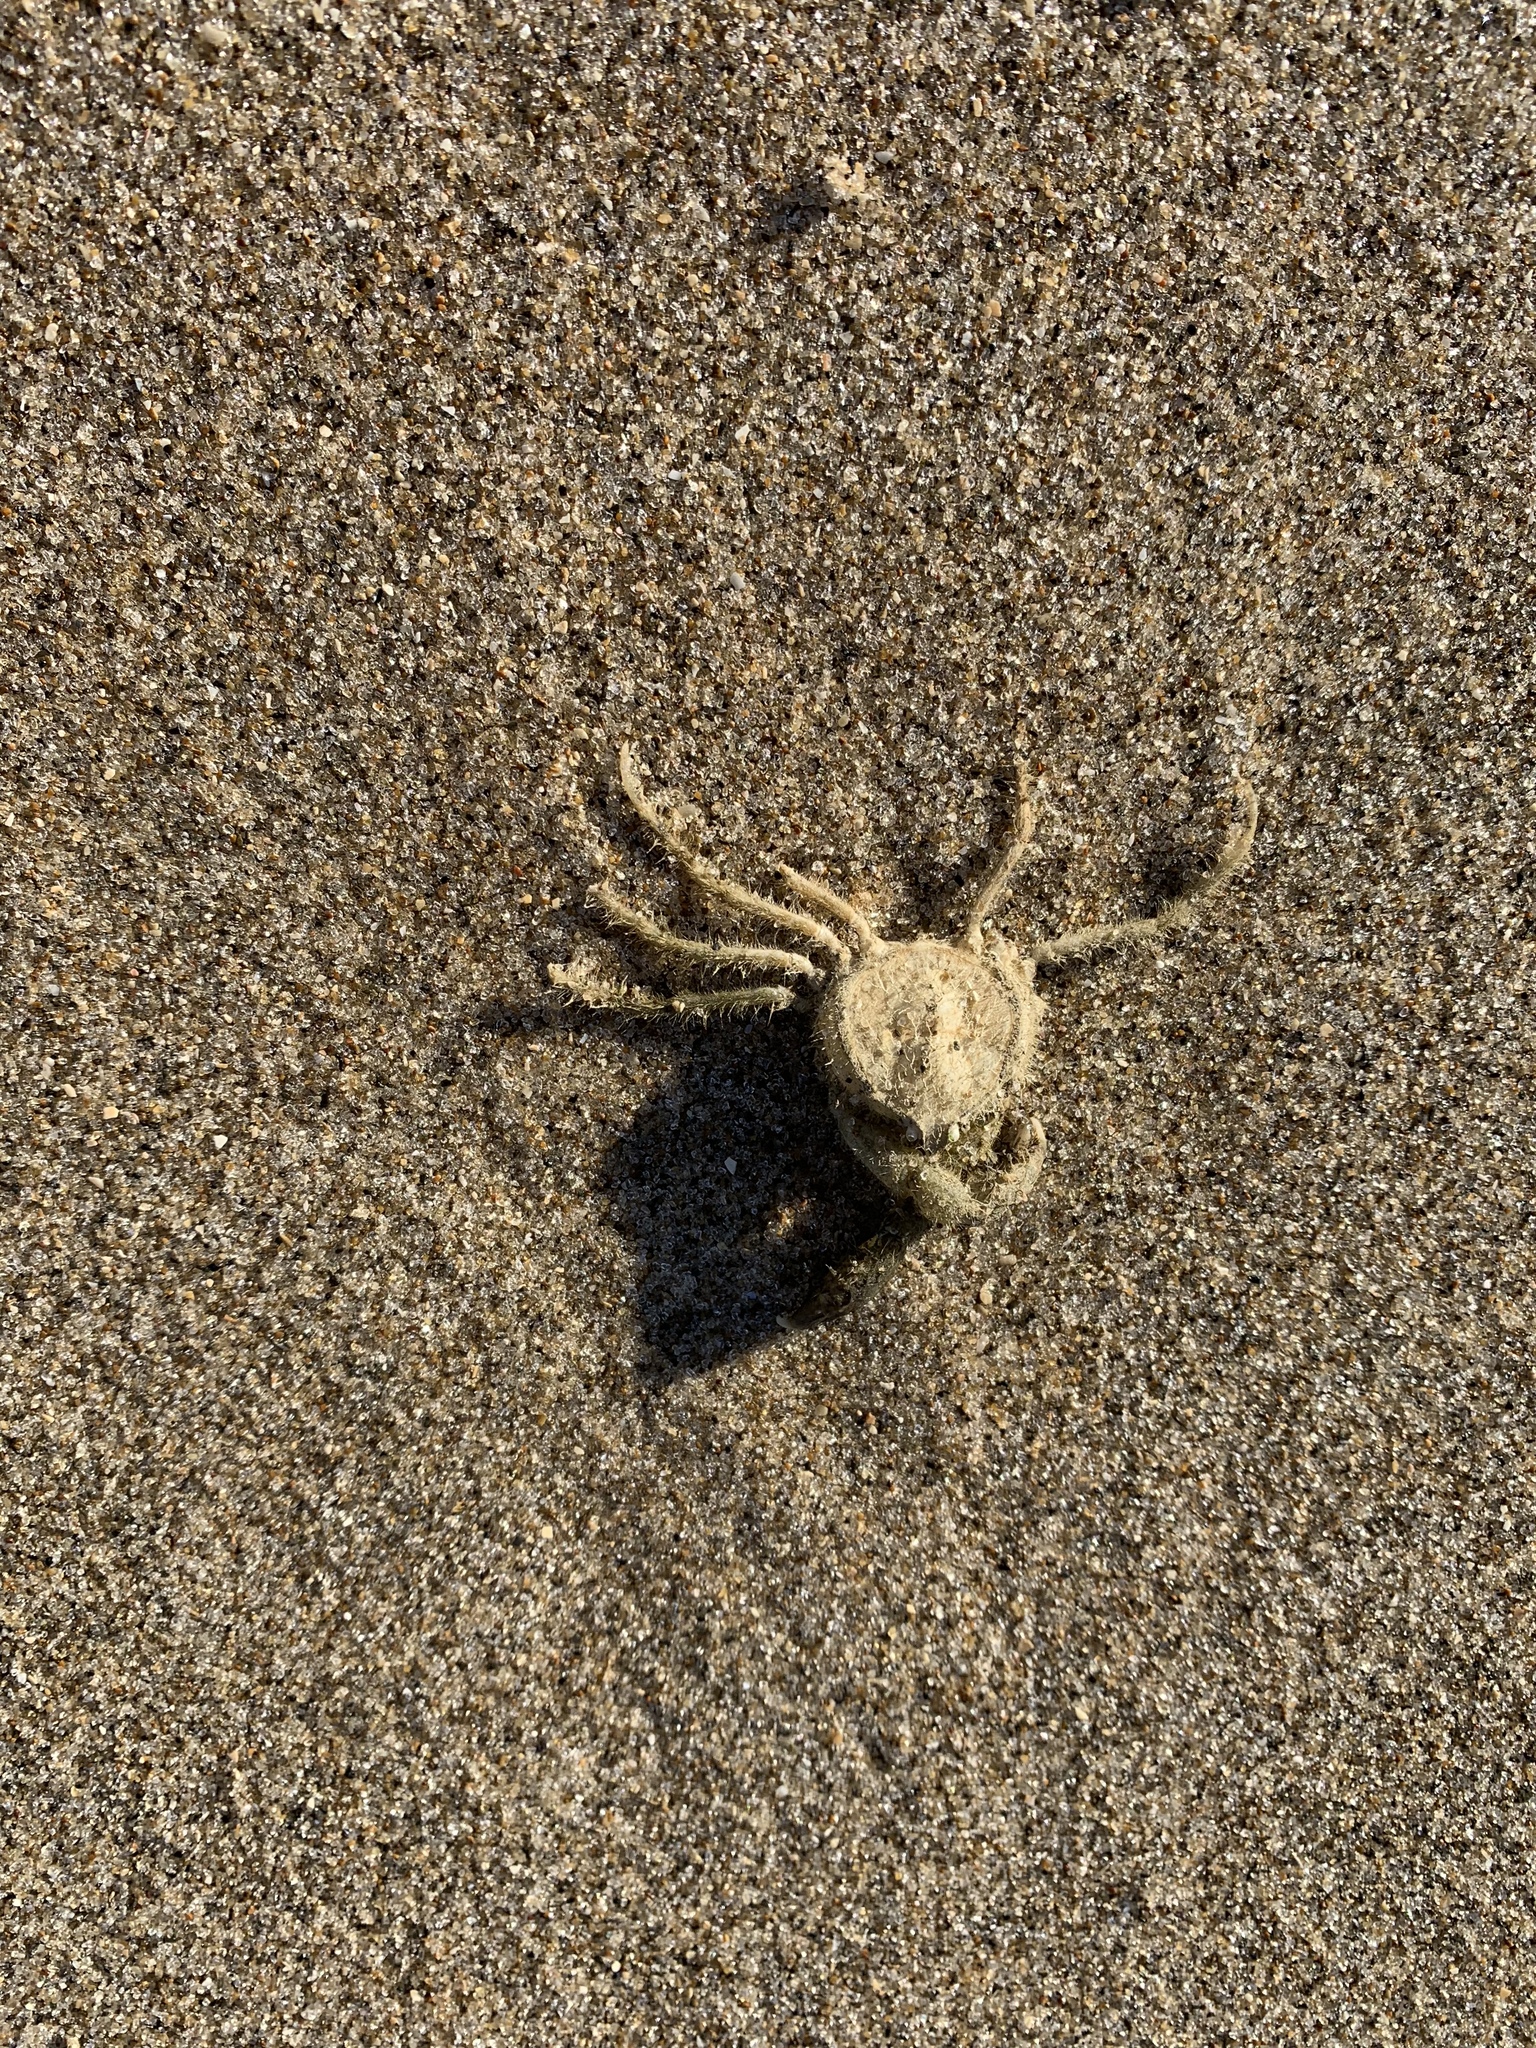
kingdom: Animalia
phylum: Arthropoda
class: Malacostraca
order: Decapoda
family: Hymenosomatidae
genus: Halicarcinus
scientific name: Halicarcinus whitei
